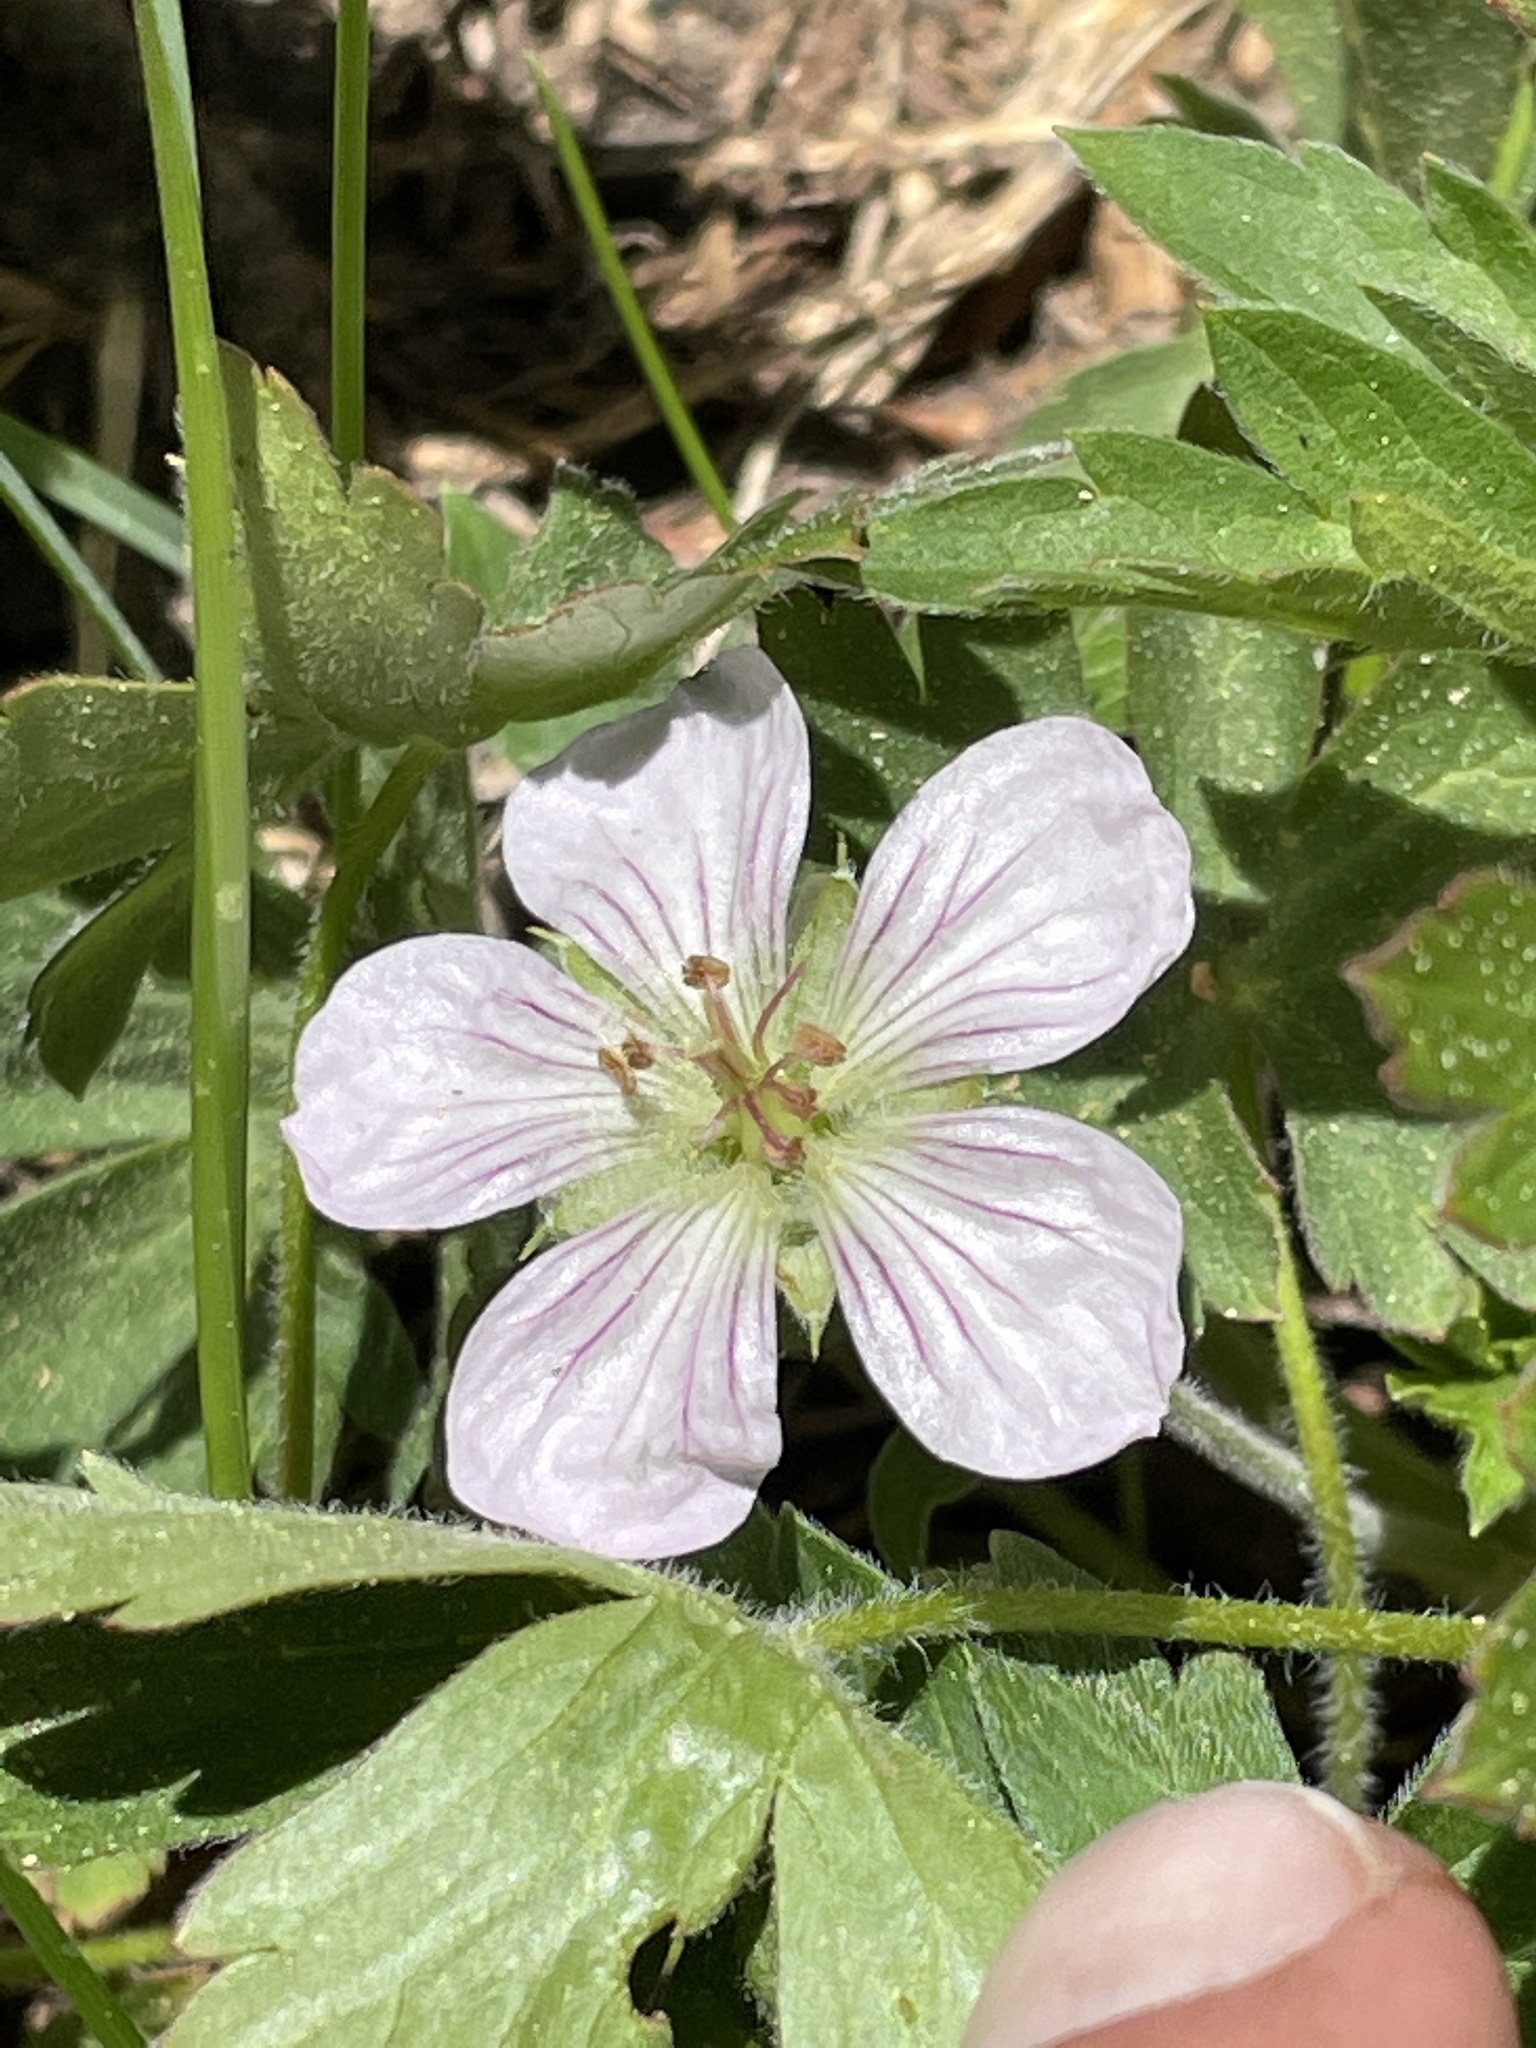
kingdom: Plantae
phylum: Tracheophyta
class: Magnoliopsida
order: Geraniales
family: Geraniaceae
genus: Geranium
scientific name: Geranium richardsonii
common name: Richardson's crane's-bill
